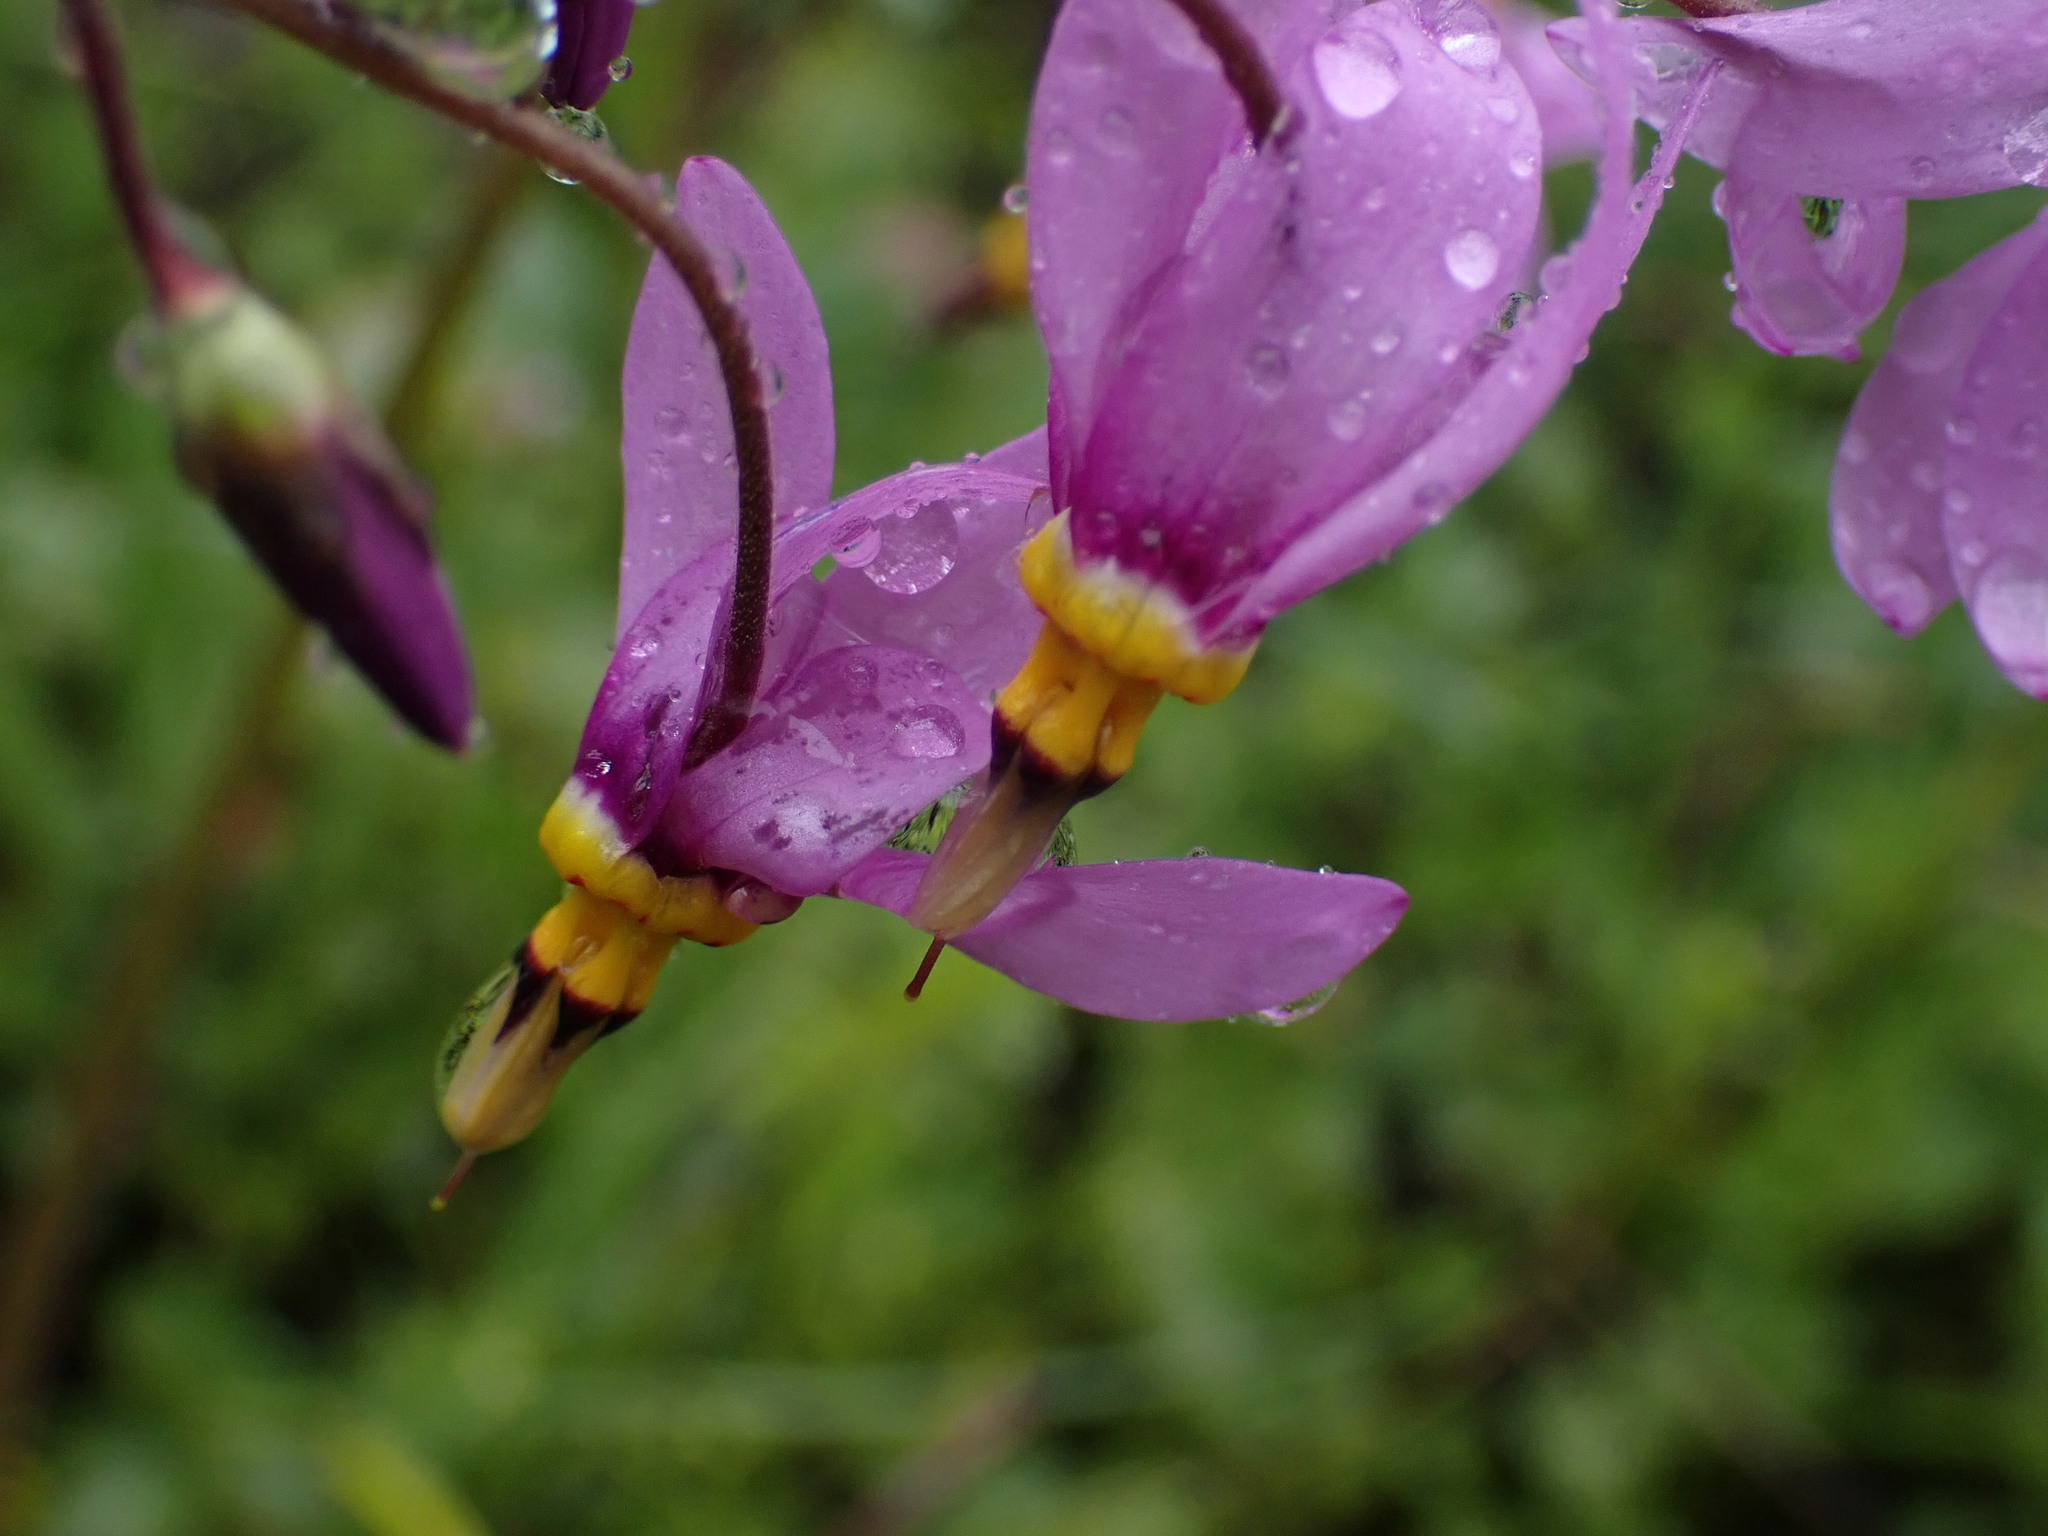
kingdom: Plantae
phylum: Tracheophyta
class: Magnoliopsida
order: Ericales
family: Primulaceae
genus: Dodecatheon
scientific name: Dodecatheon pulchellum
